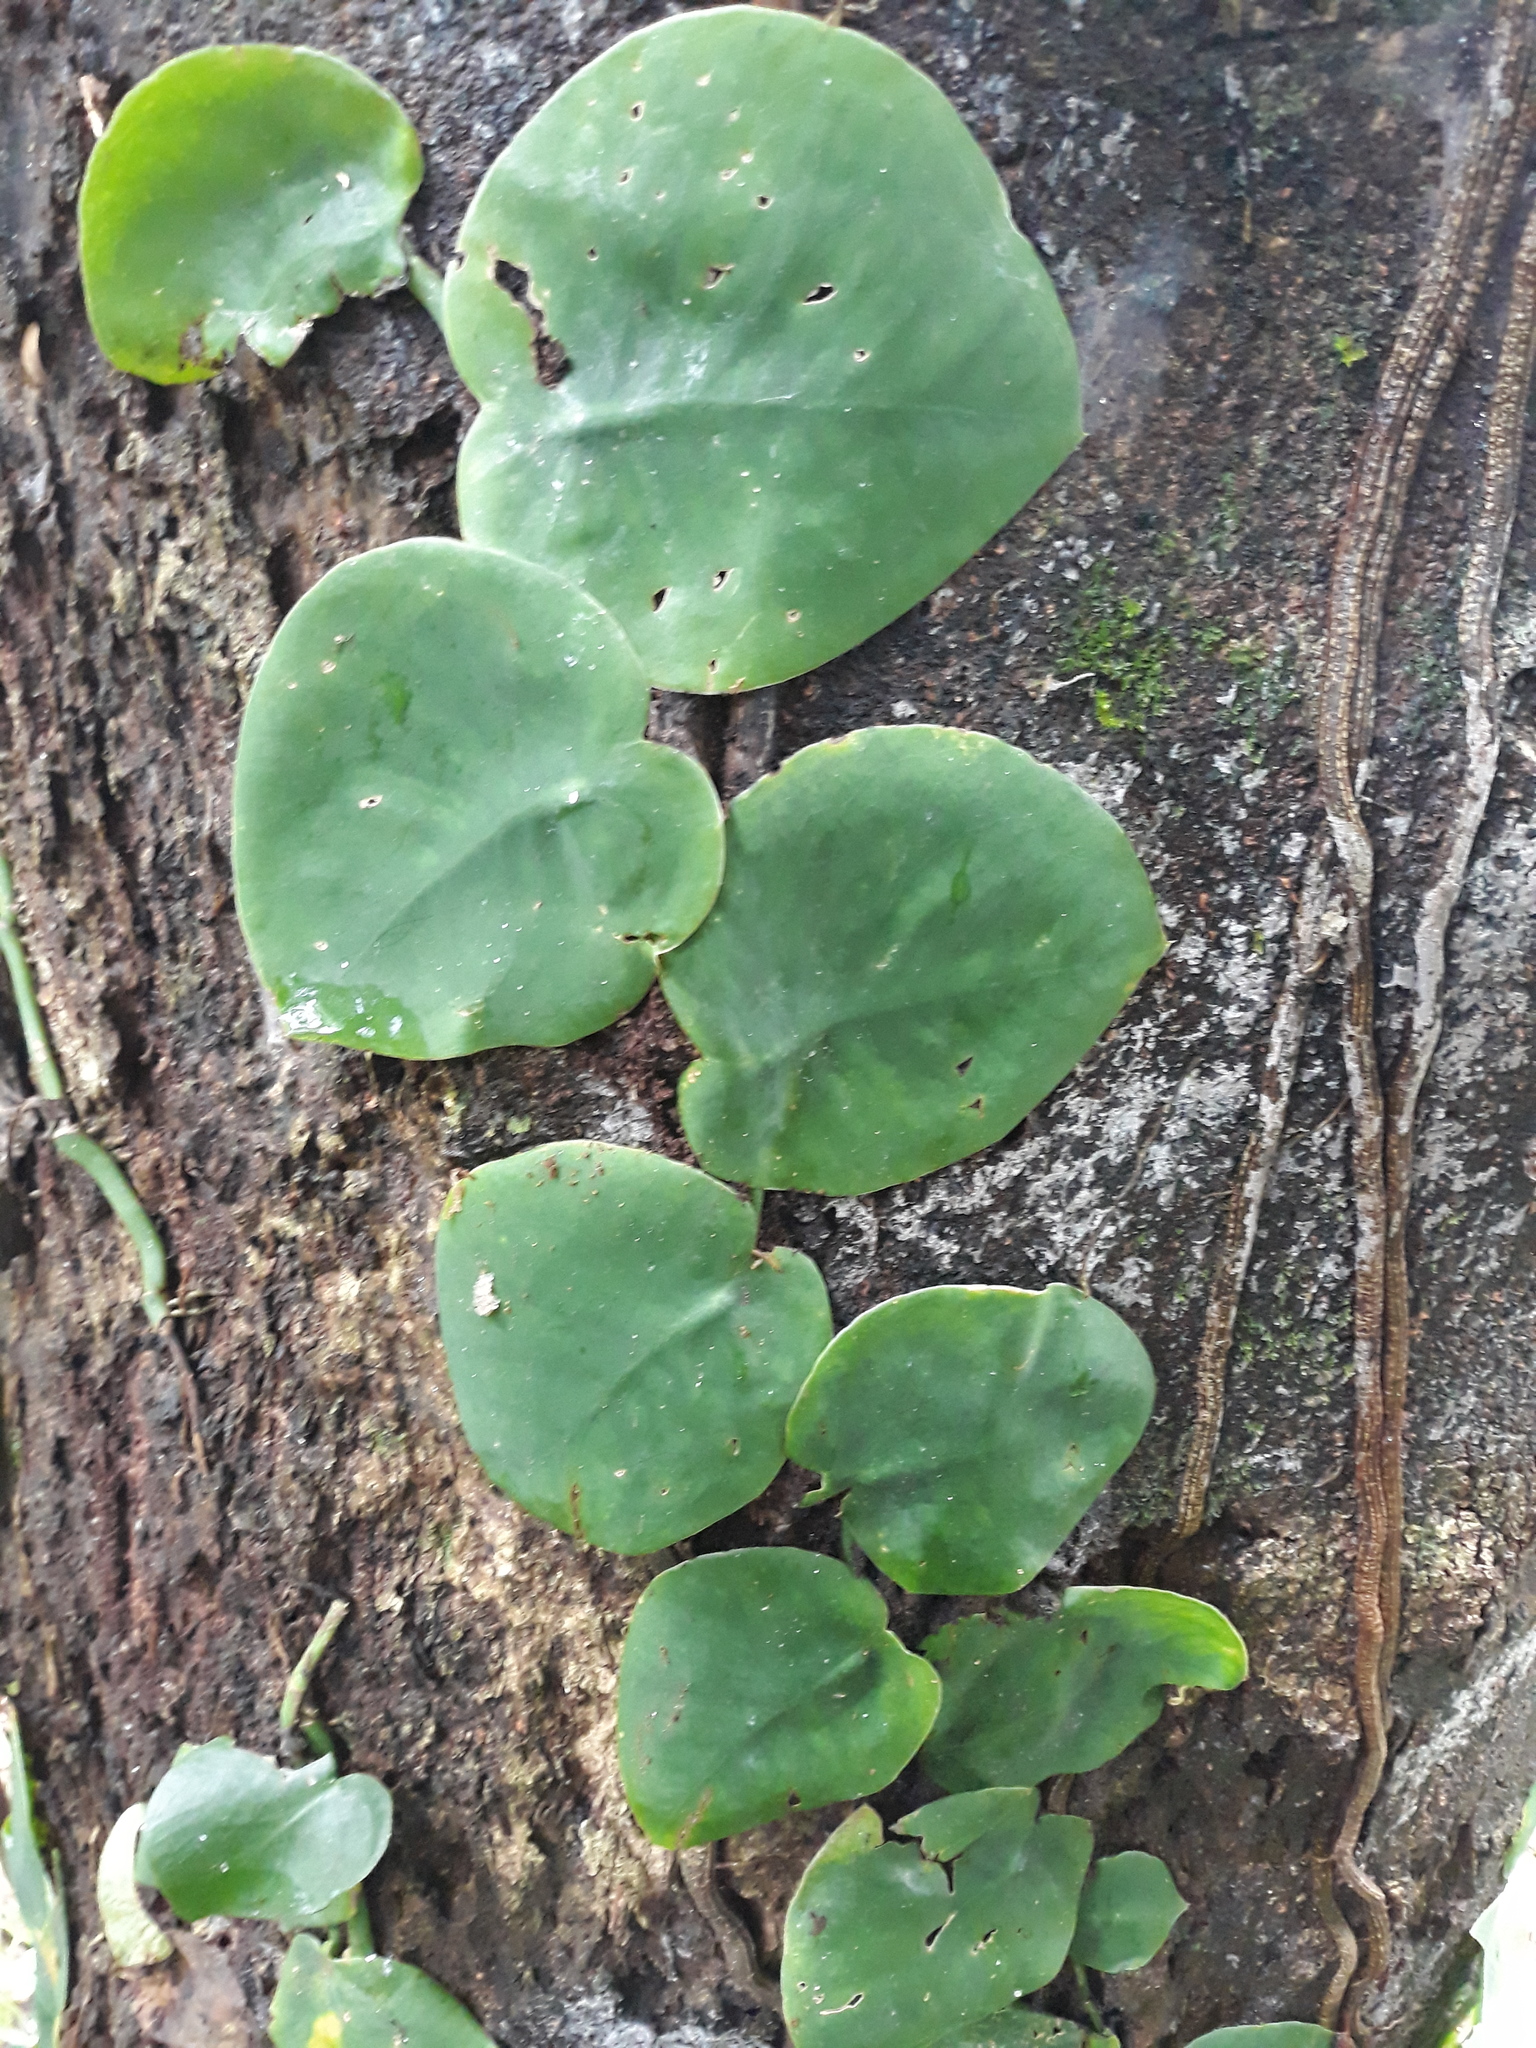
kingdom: Plantae
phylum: Tracheophyta
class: Liliopsida
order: Alismatales
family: Araceae
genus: Monstera
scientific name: Monstera tuberculata
